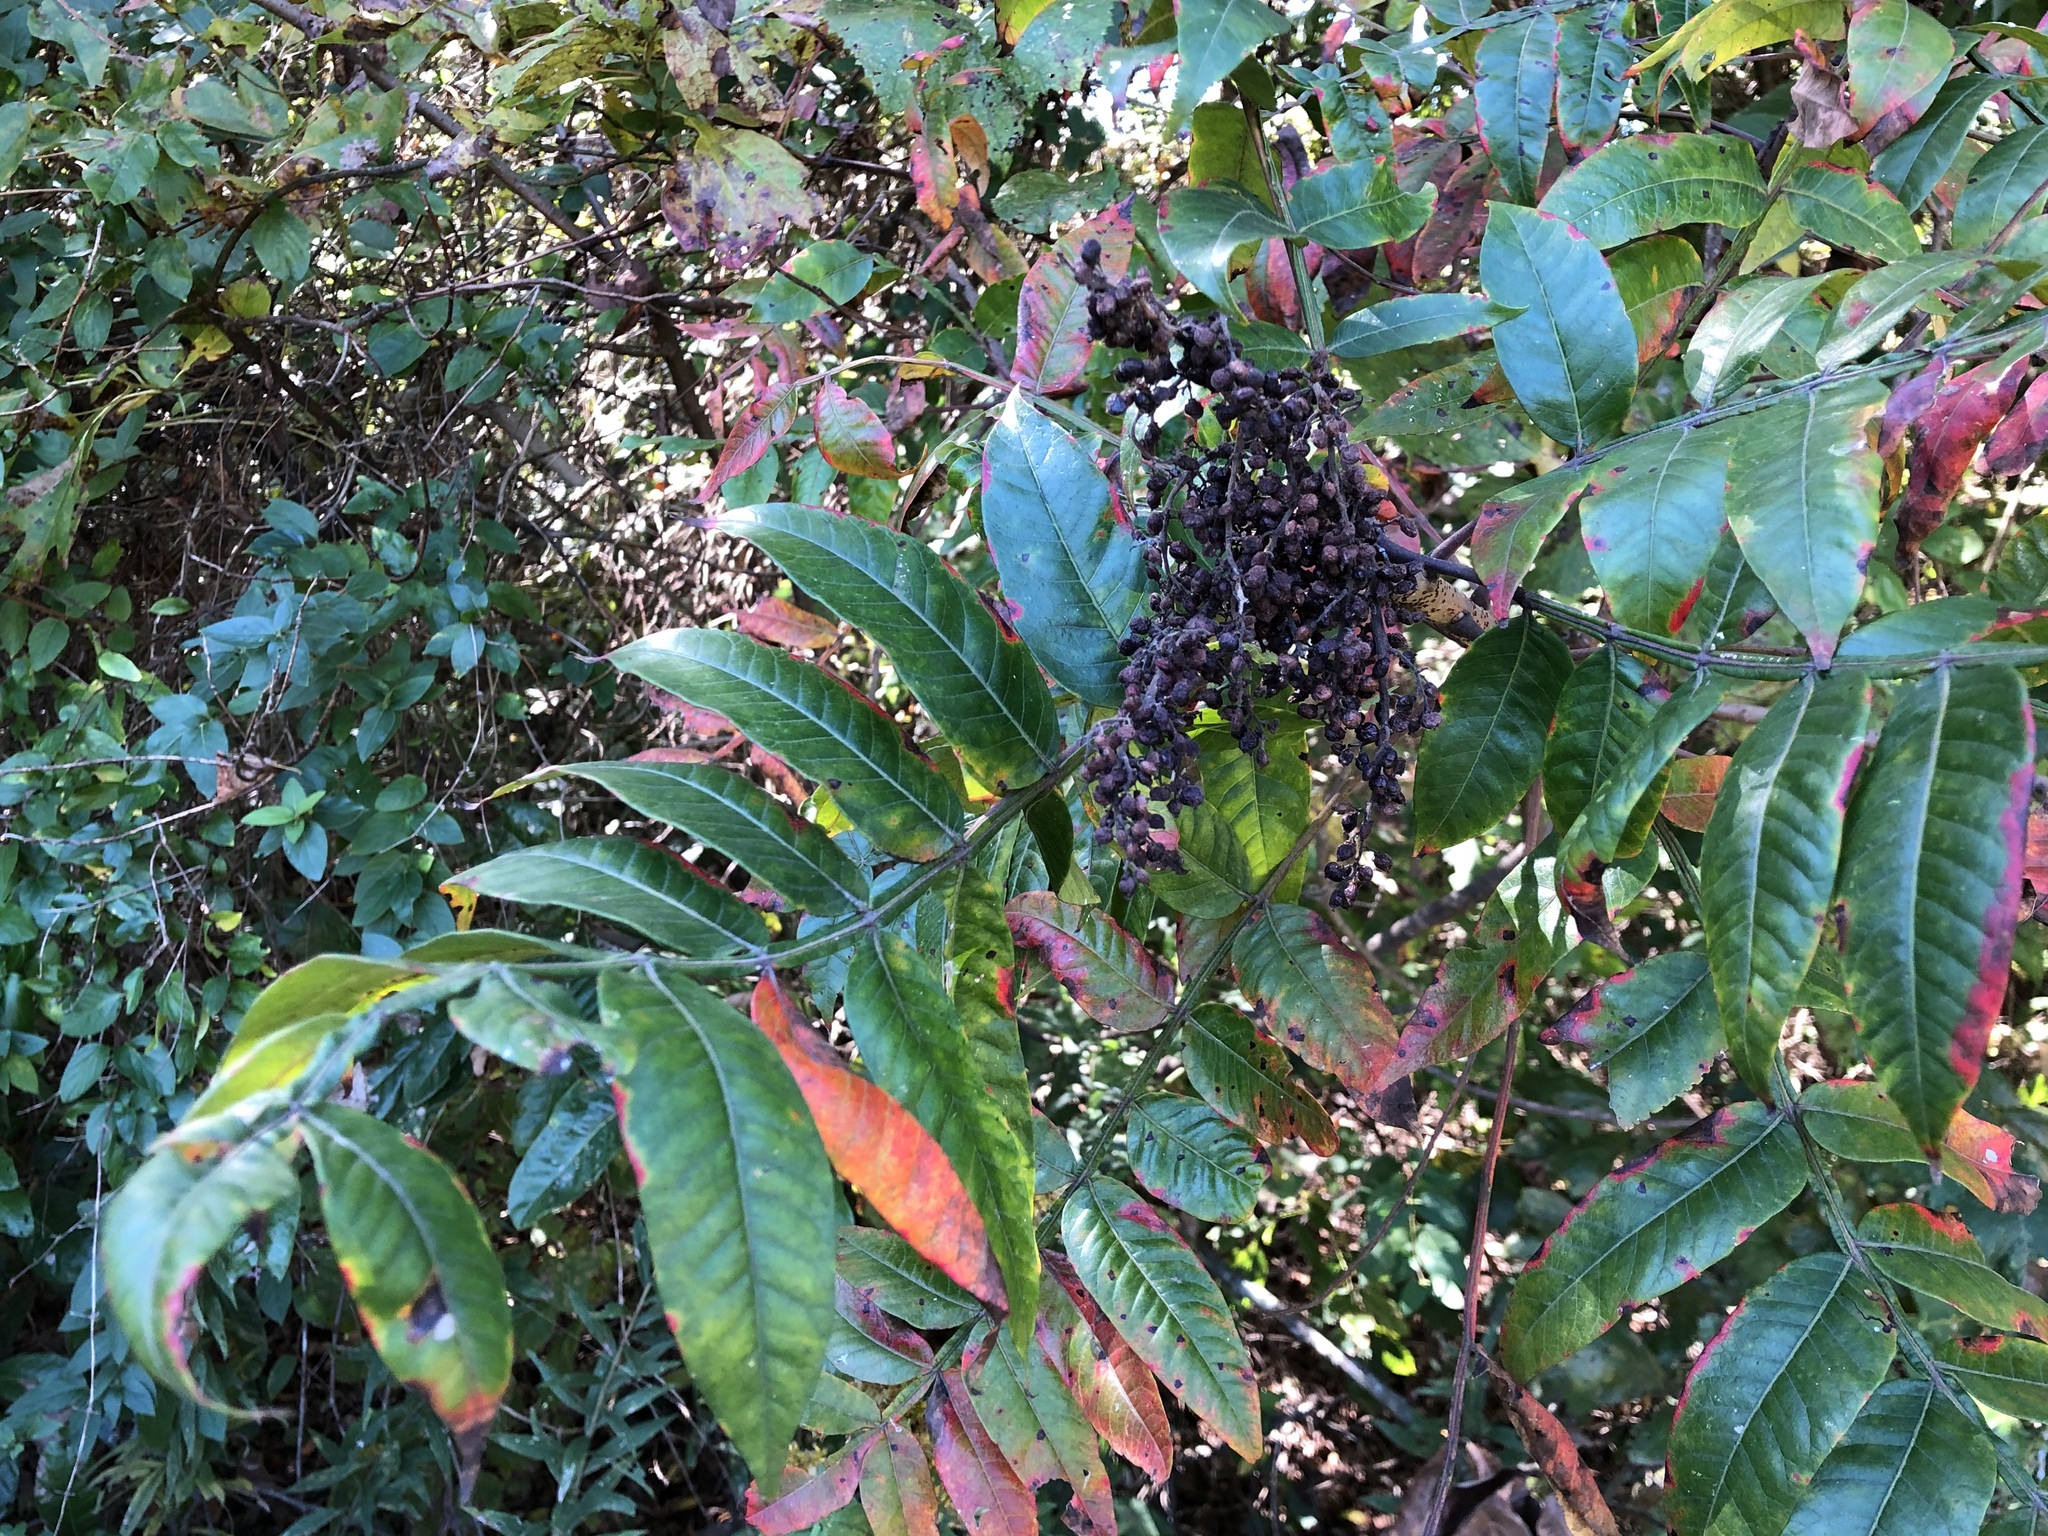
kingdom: Plantae
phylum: Tracheophyta
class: Magnoliopsida
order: Sapindales
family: Anacardiaceae
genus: Rhus
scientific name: Rhus copallina
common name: Shining sumac
